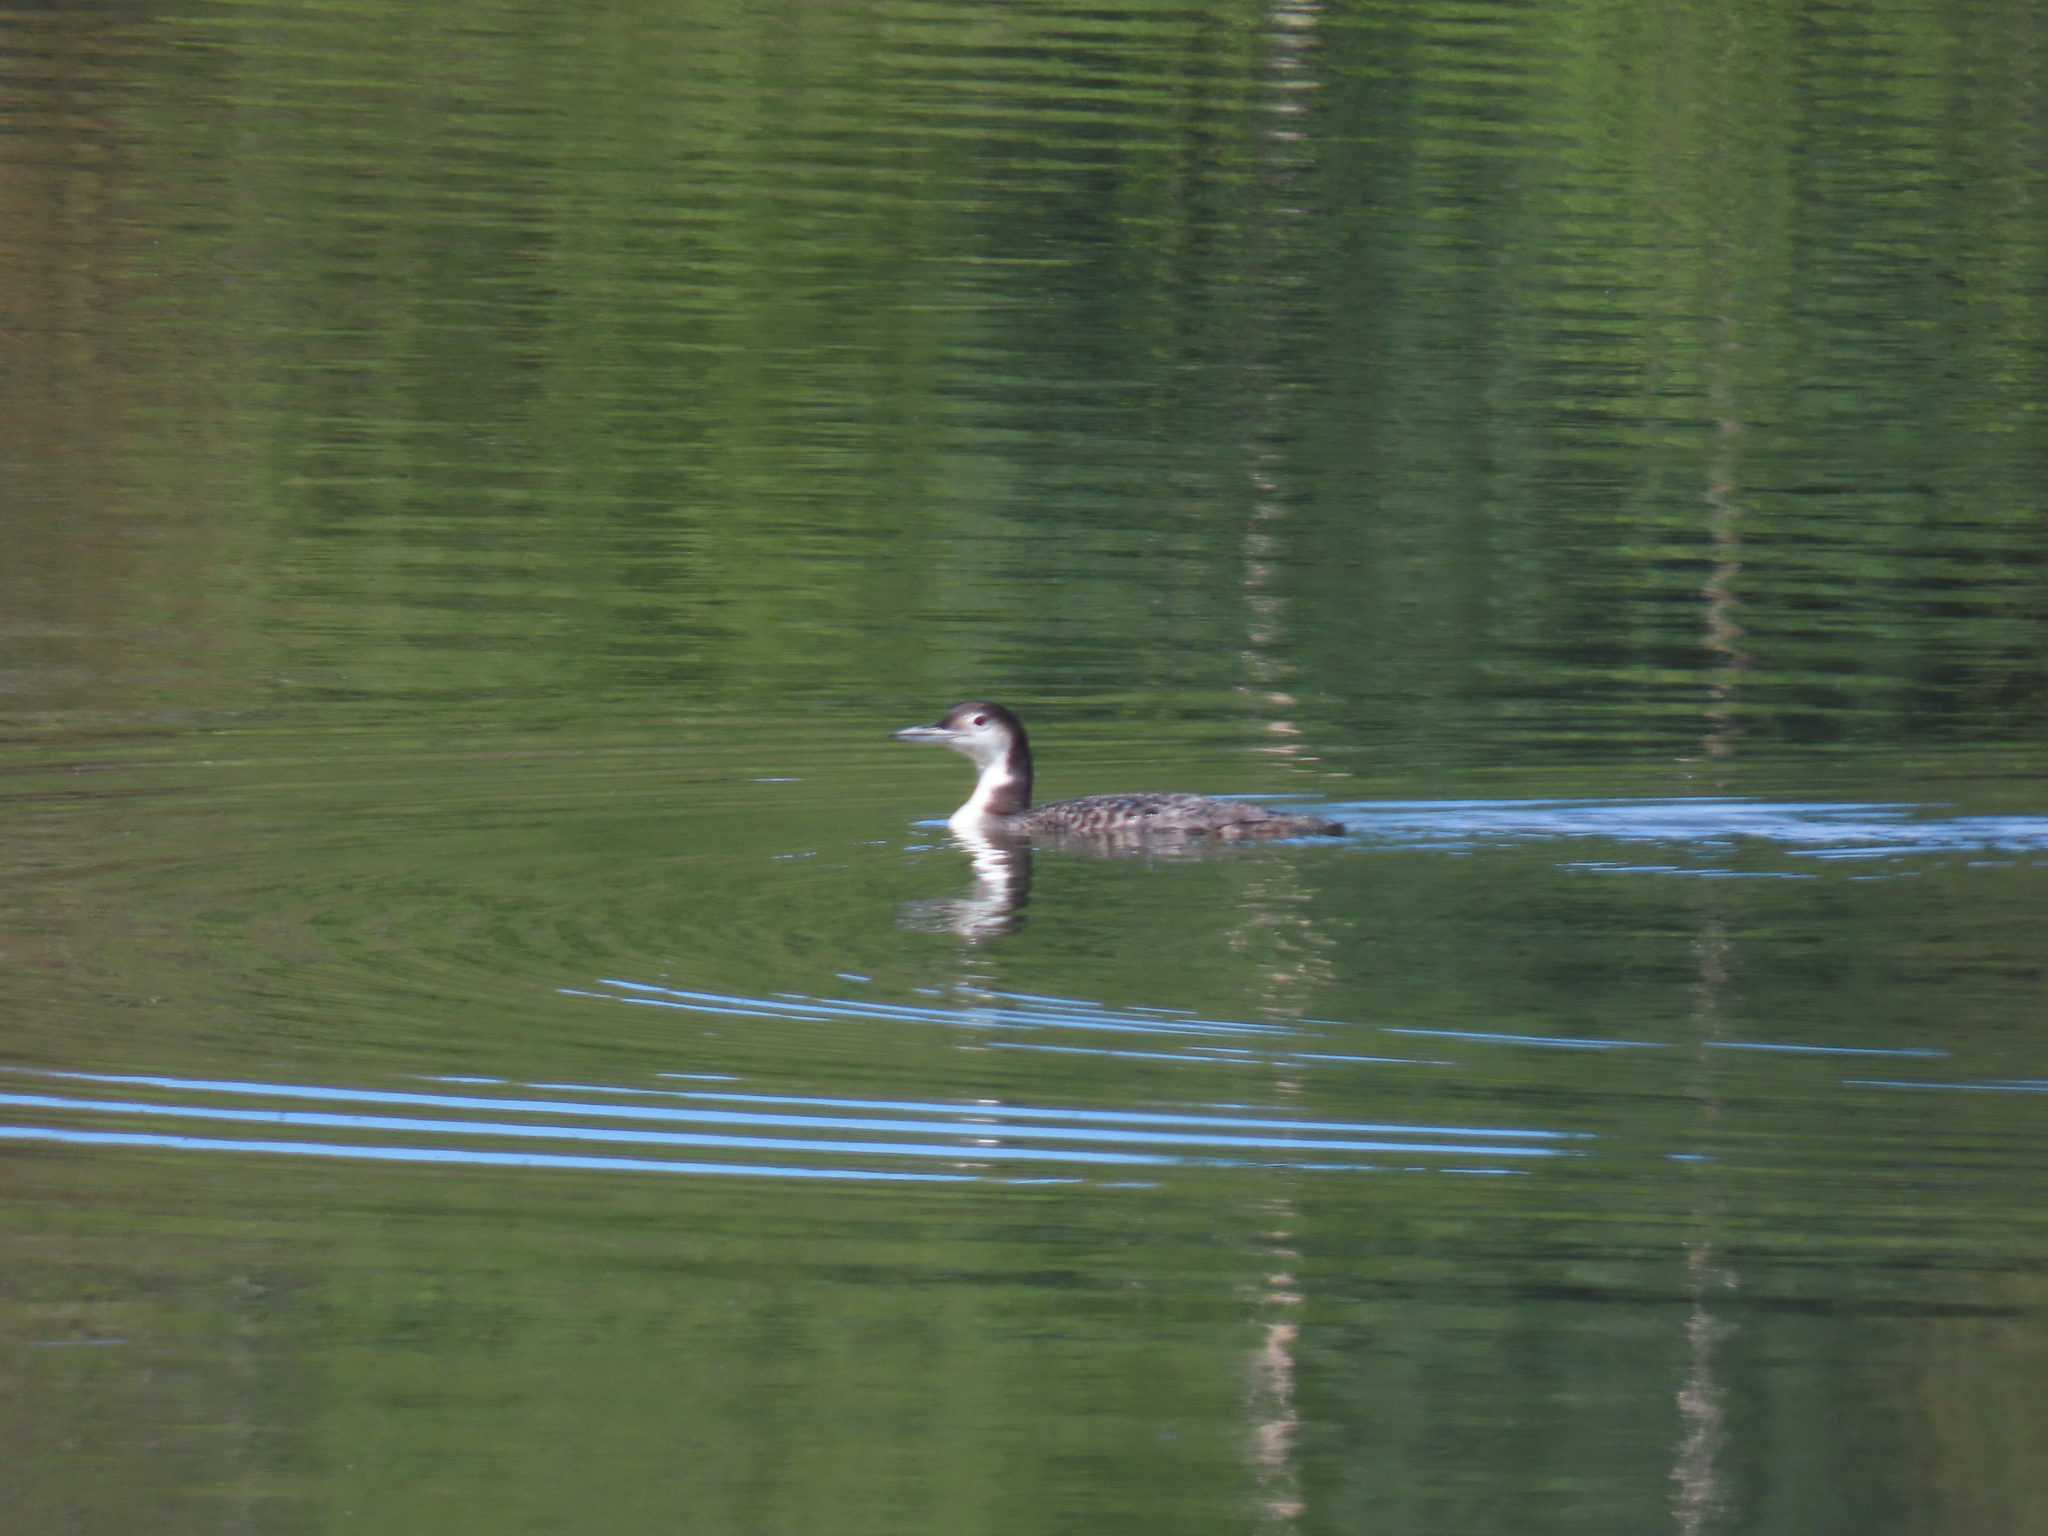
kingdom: Animalia
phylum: Chordata
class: Aves
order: Gaviiformes
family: Gaviidae
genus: Gavia
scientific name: Gavia immer
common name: Common loon
